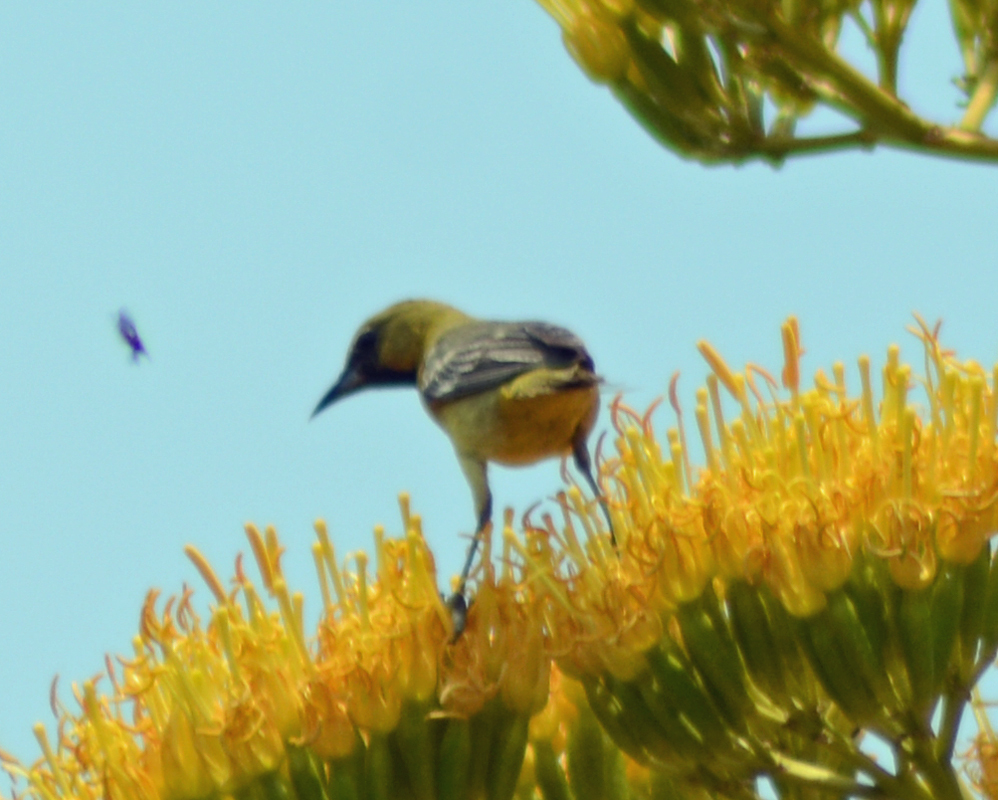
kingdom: Animalia
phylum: Chordata
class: Aves
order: Passeriformes
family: Icteridae
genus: Icterus
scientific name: Icterus cucullatus
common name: Hooded oriole
